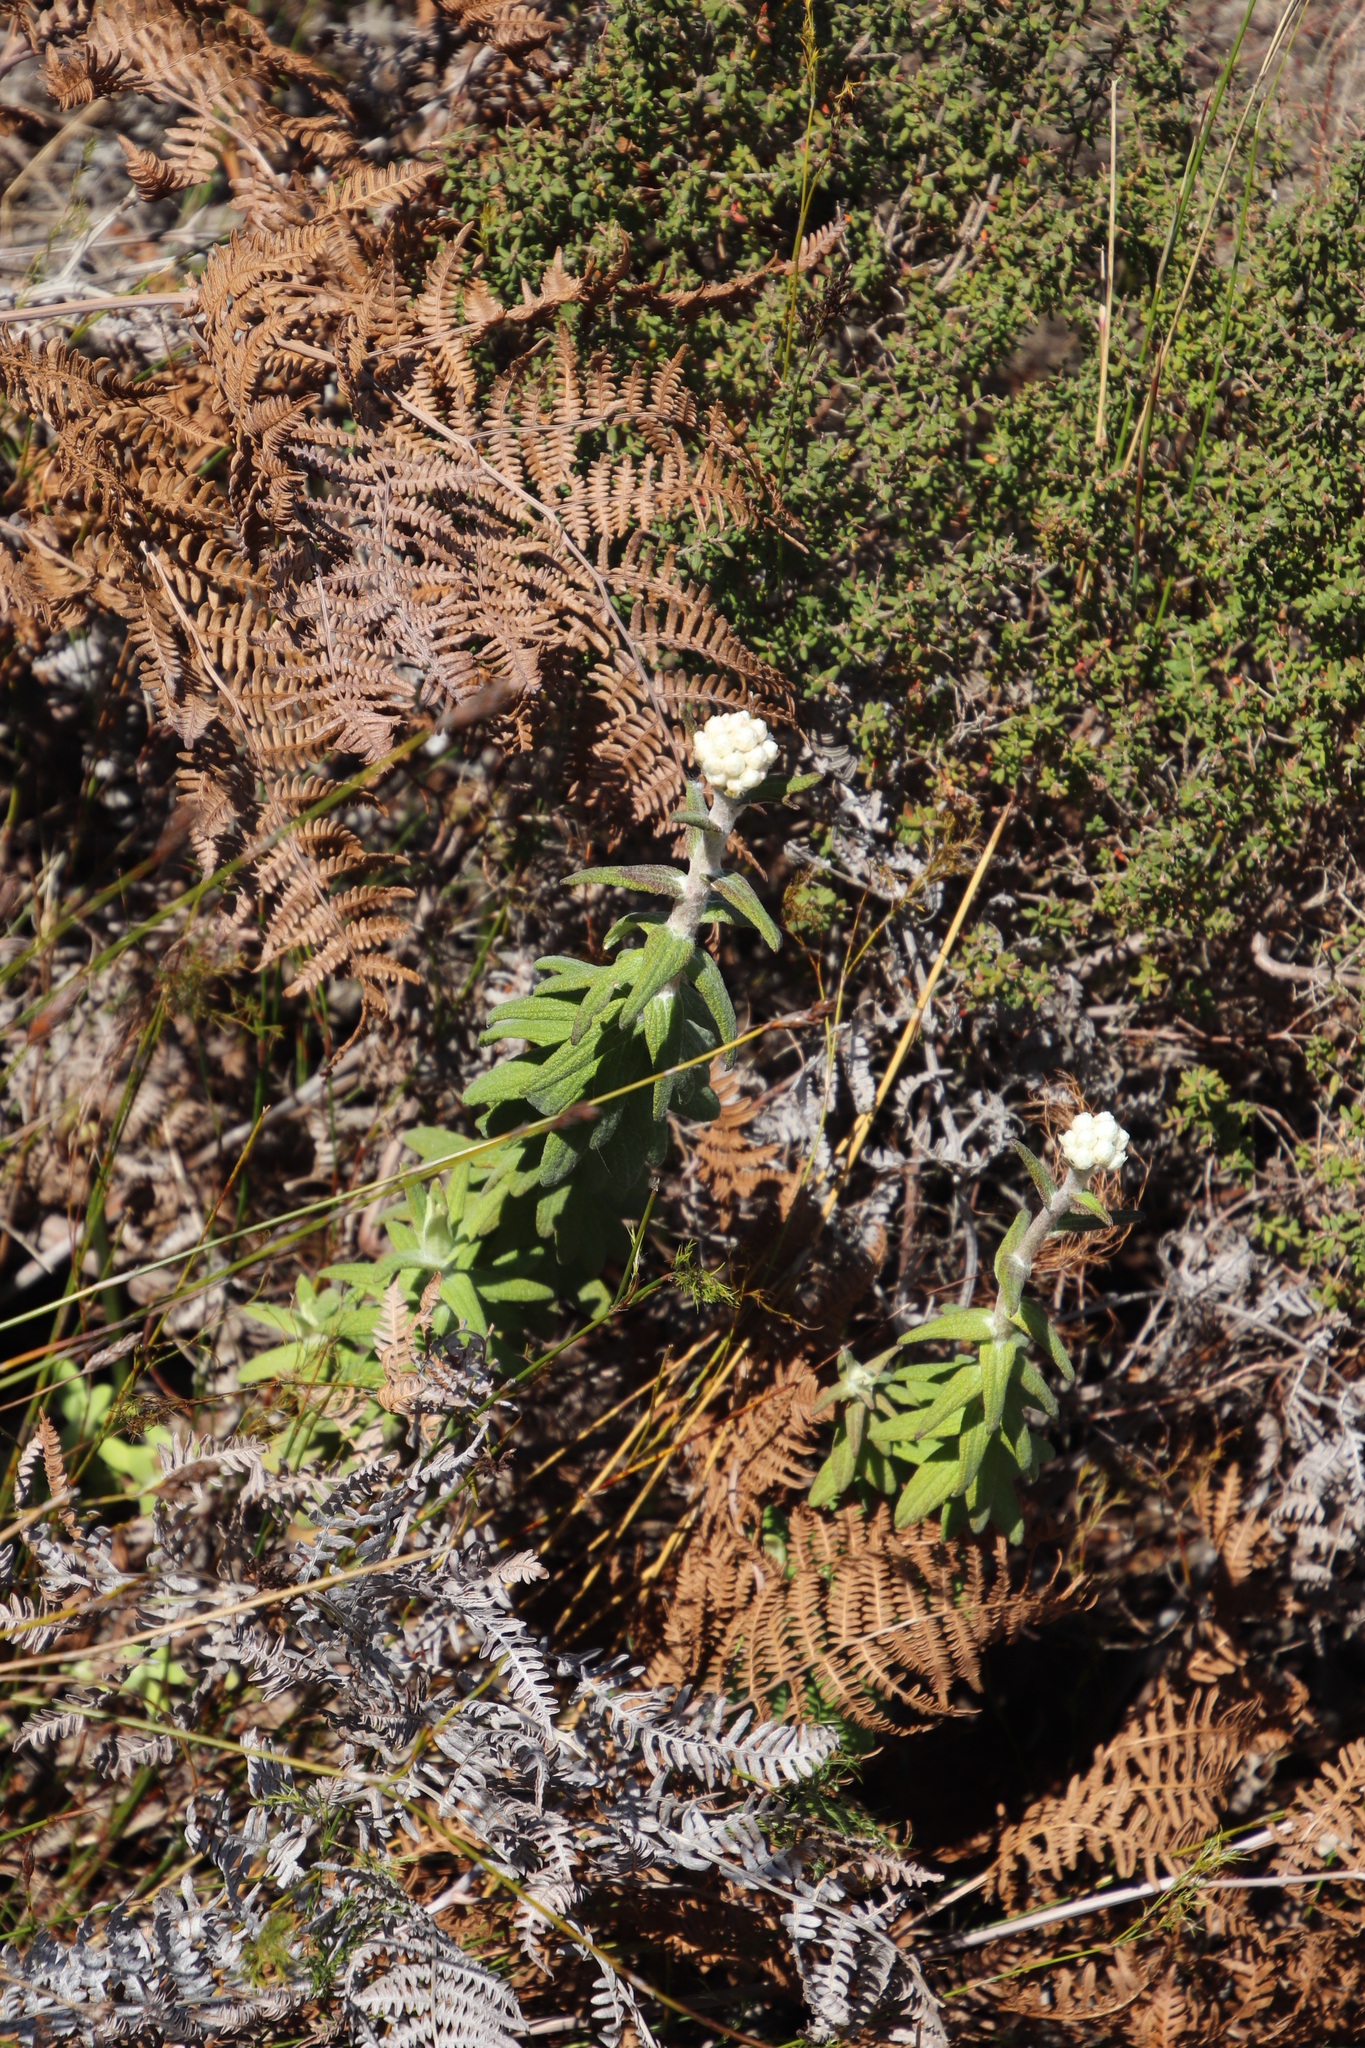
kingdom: Plantae
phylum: Tracheophyta
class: Magnoliopsida
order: Asterales
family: Asteraceae
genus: Helichrysum
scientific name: Helichrysum felinum
